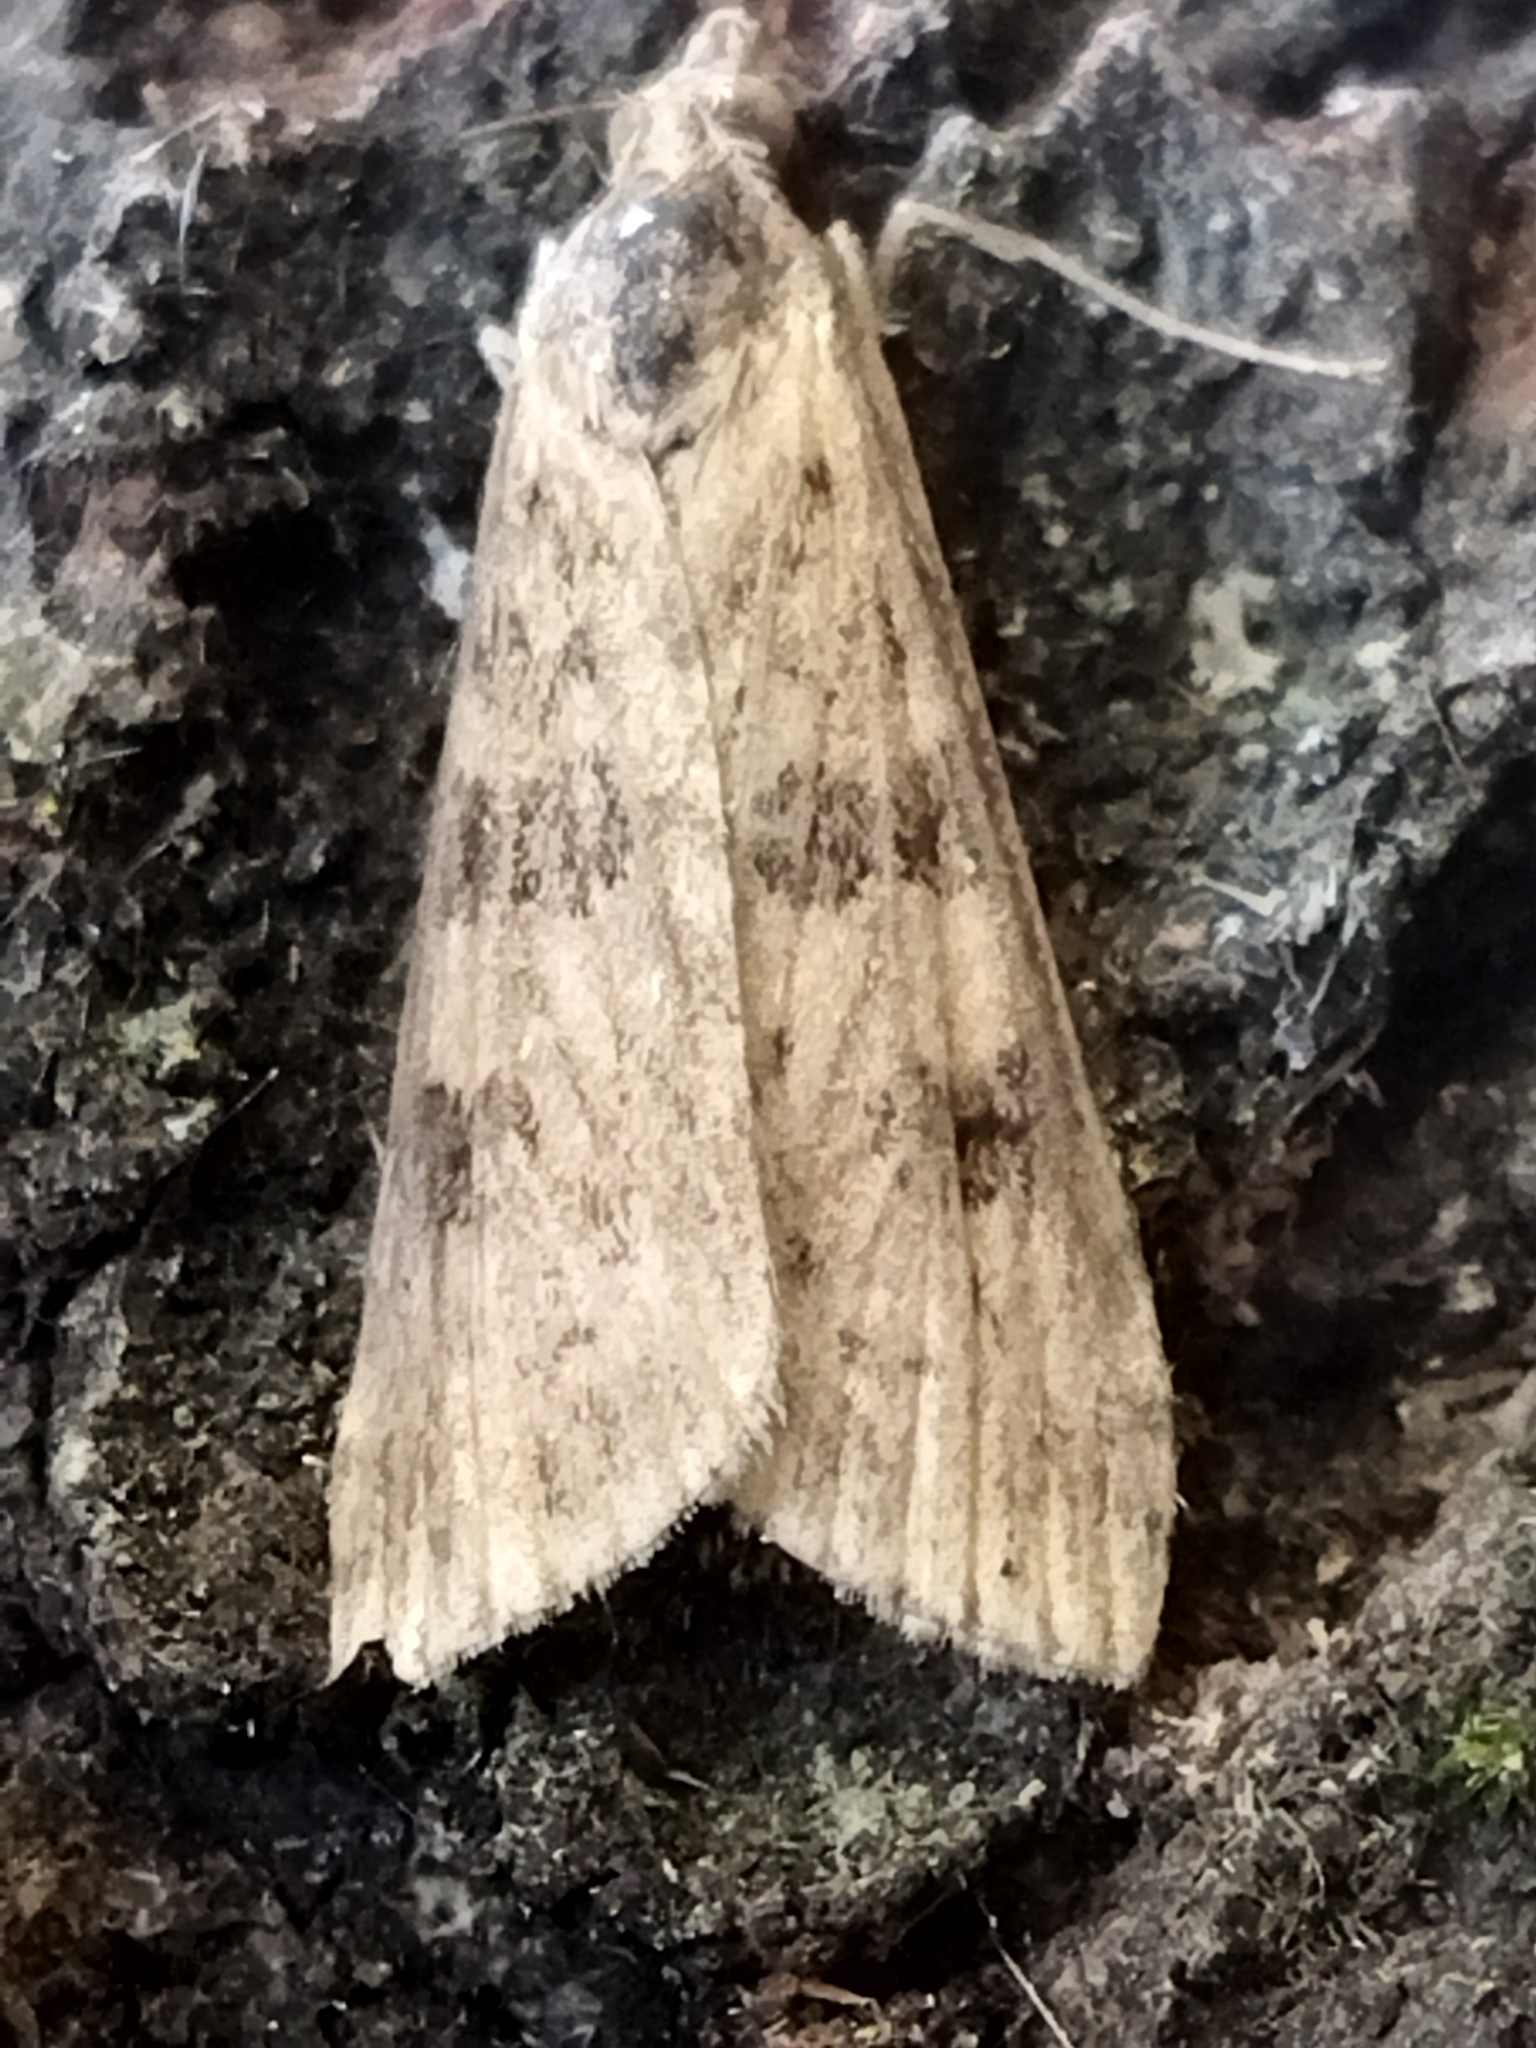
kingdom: Animalia
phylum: Arthropoda
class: Insecta
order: Lepidoptera
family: Crambidae
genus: Nomophila
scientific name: Nomophila noctuella
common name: Rush veneer
